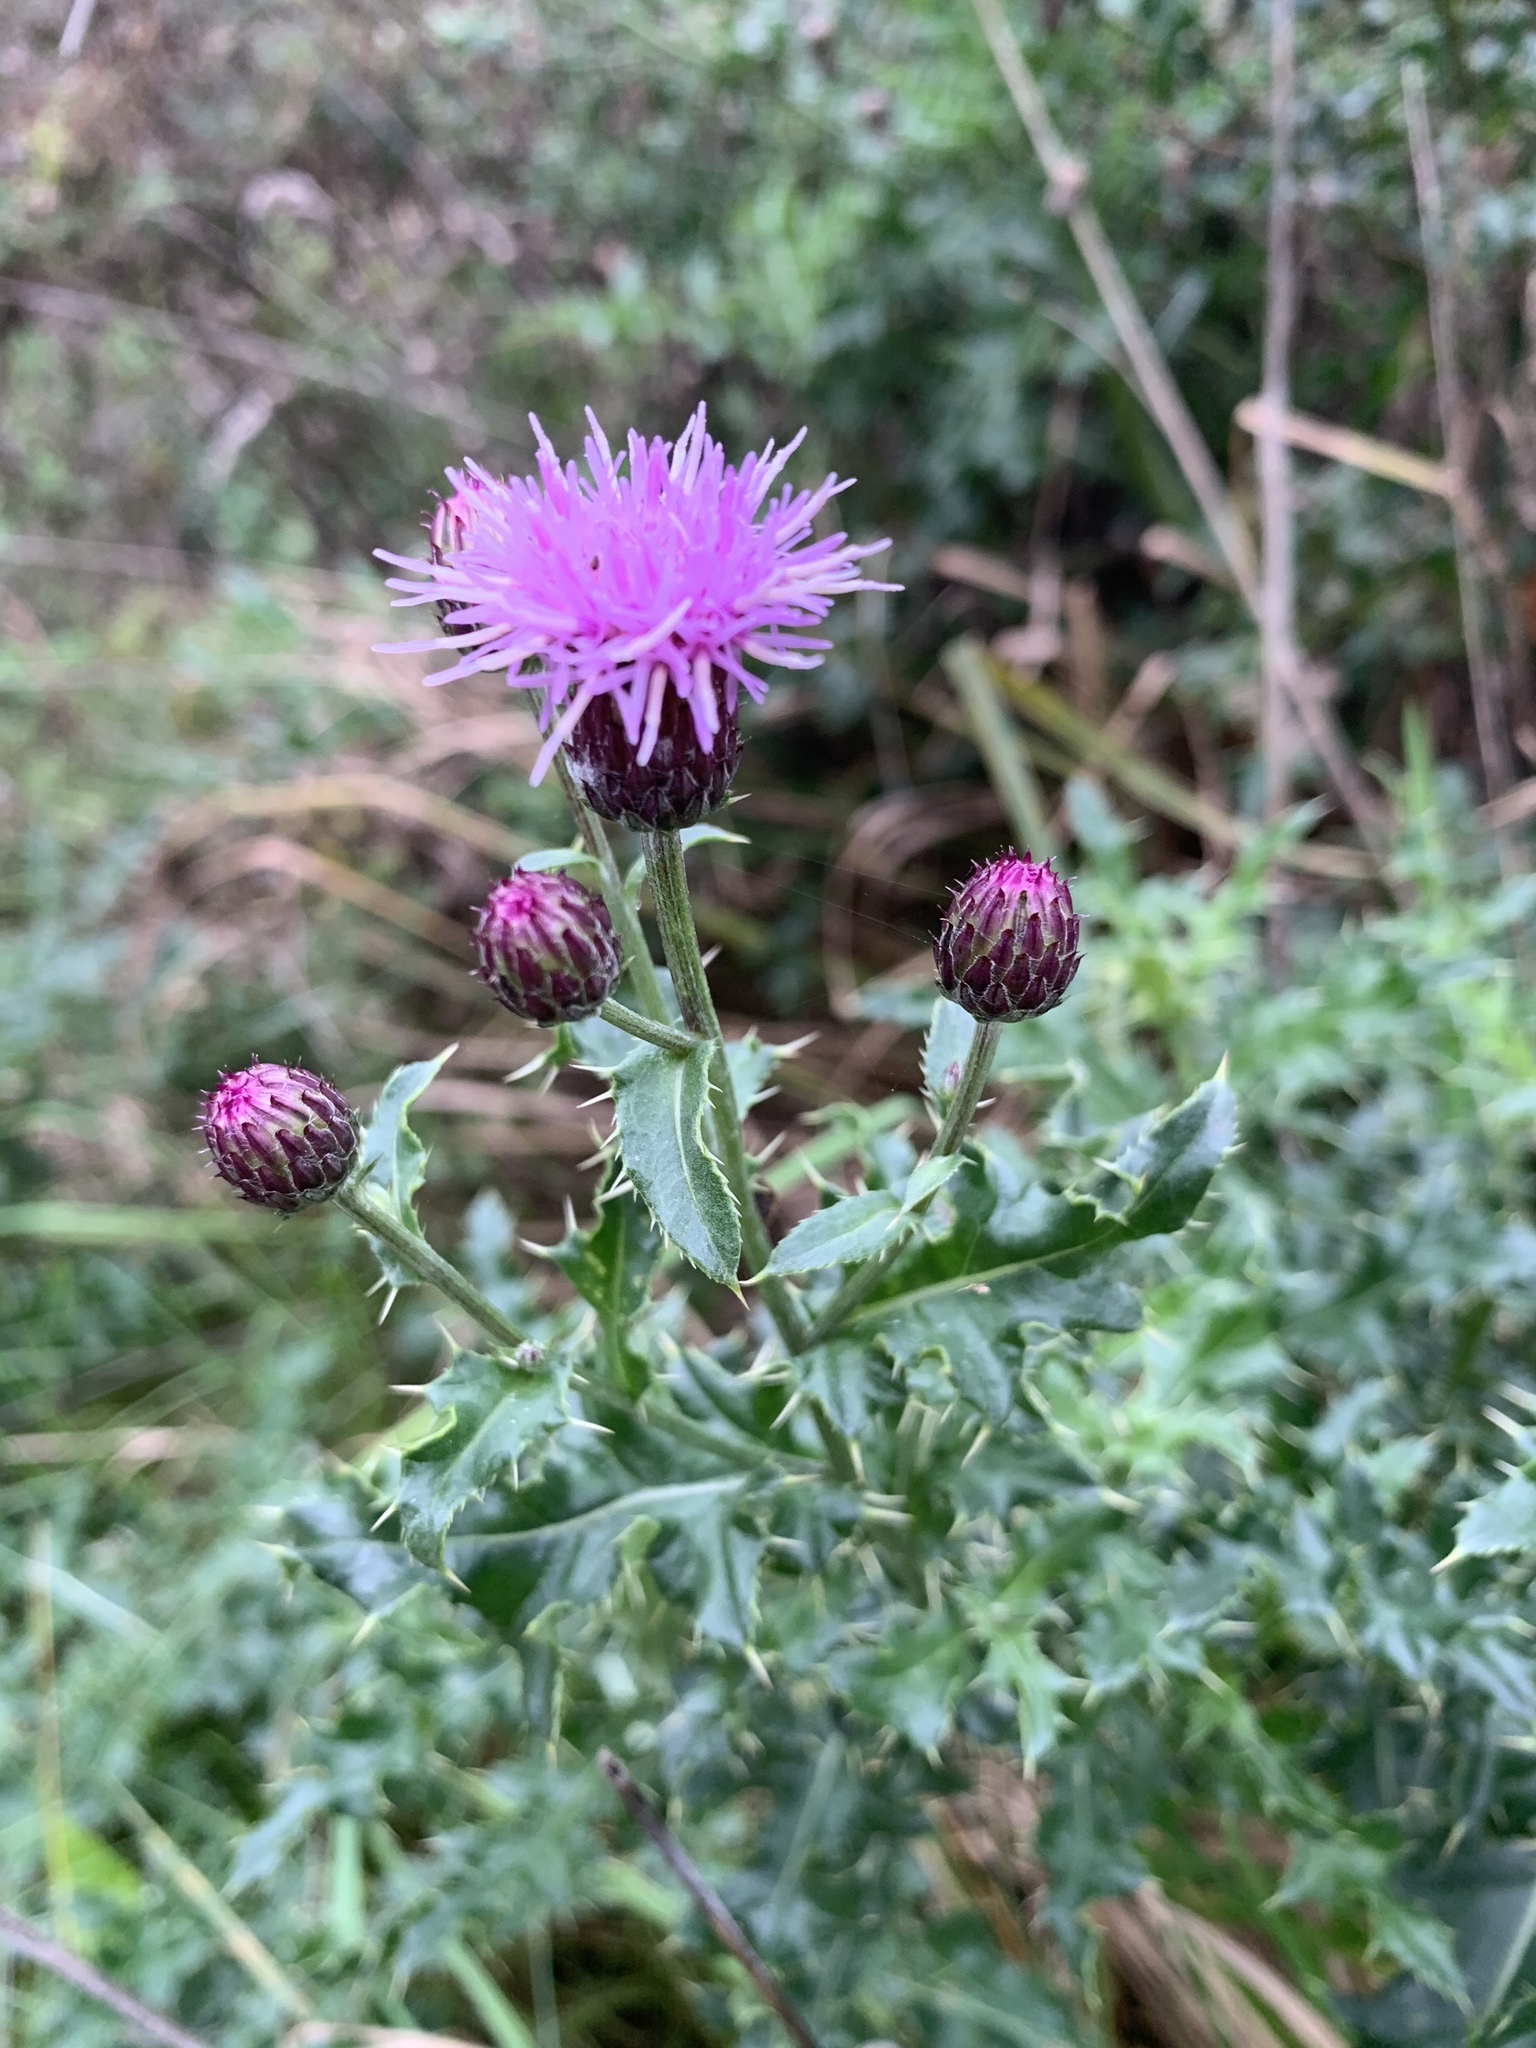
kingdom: Plantae
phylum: Tracheophyta
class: Magnoliopsida
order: Asterales
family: Asteraceae
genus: Cirsium
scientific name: Cirsium arvense
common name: Creeping thistle
